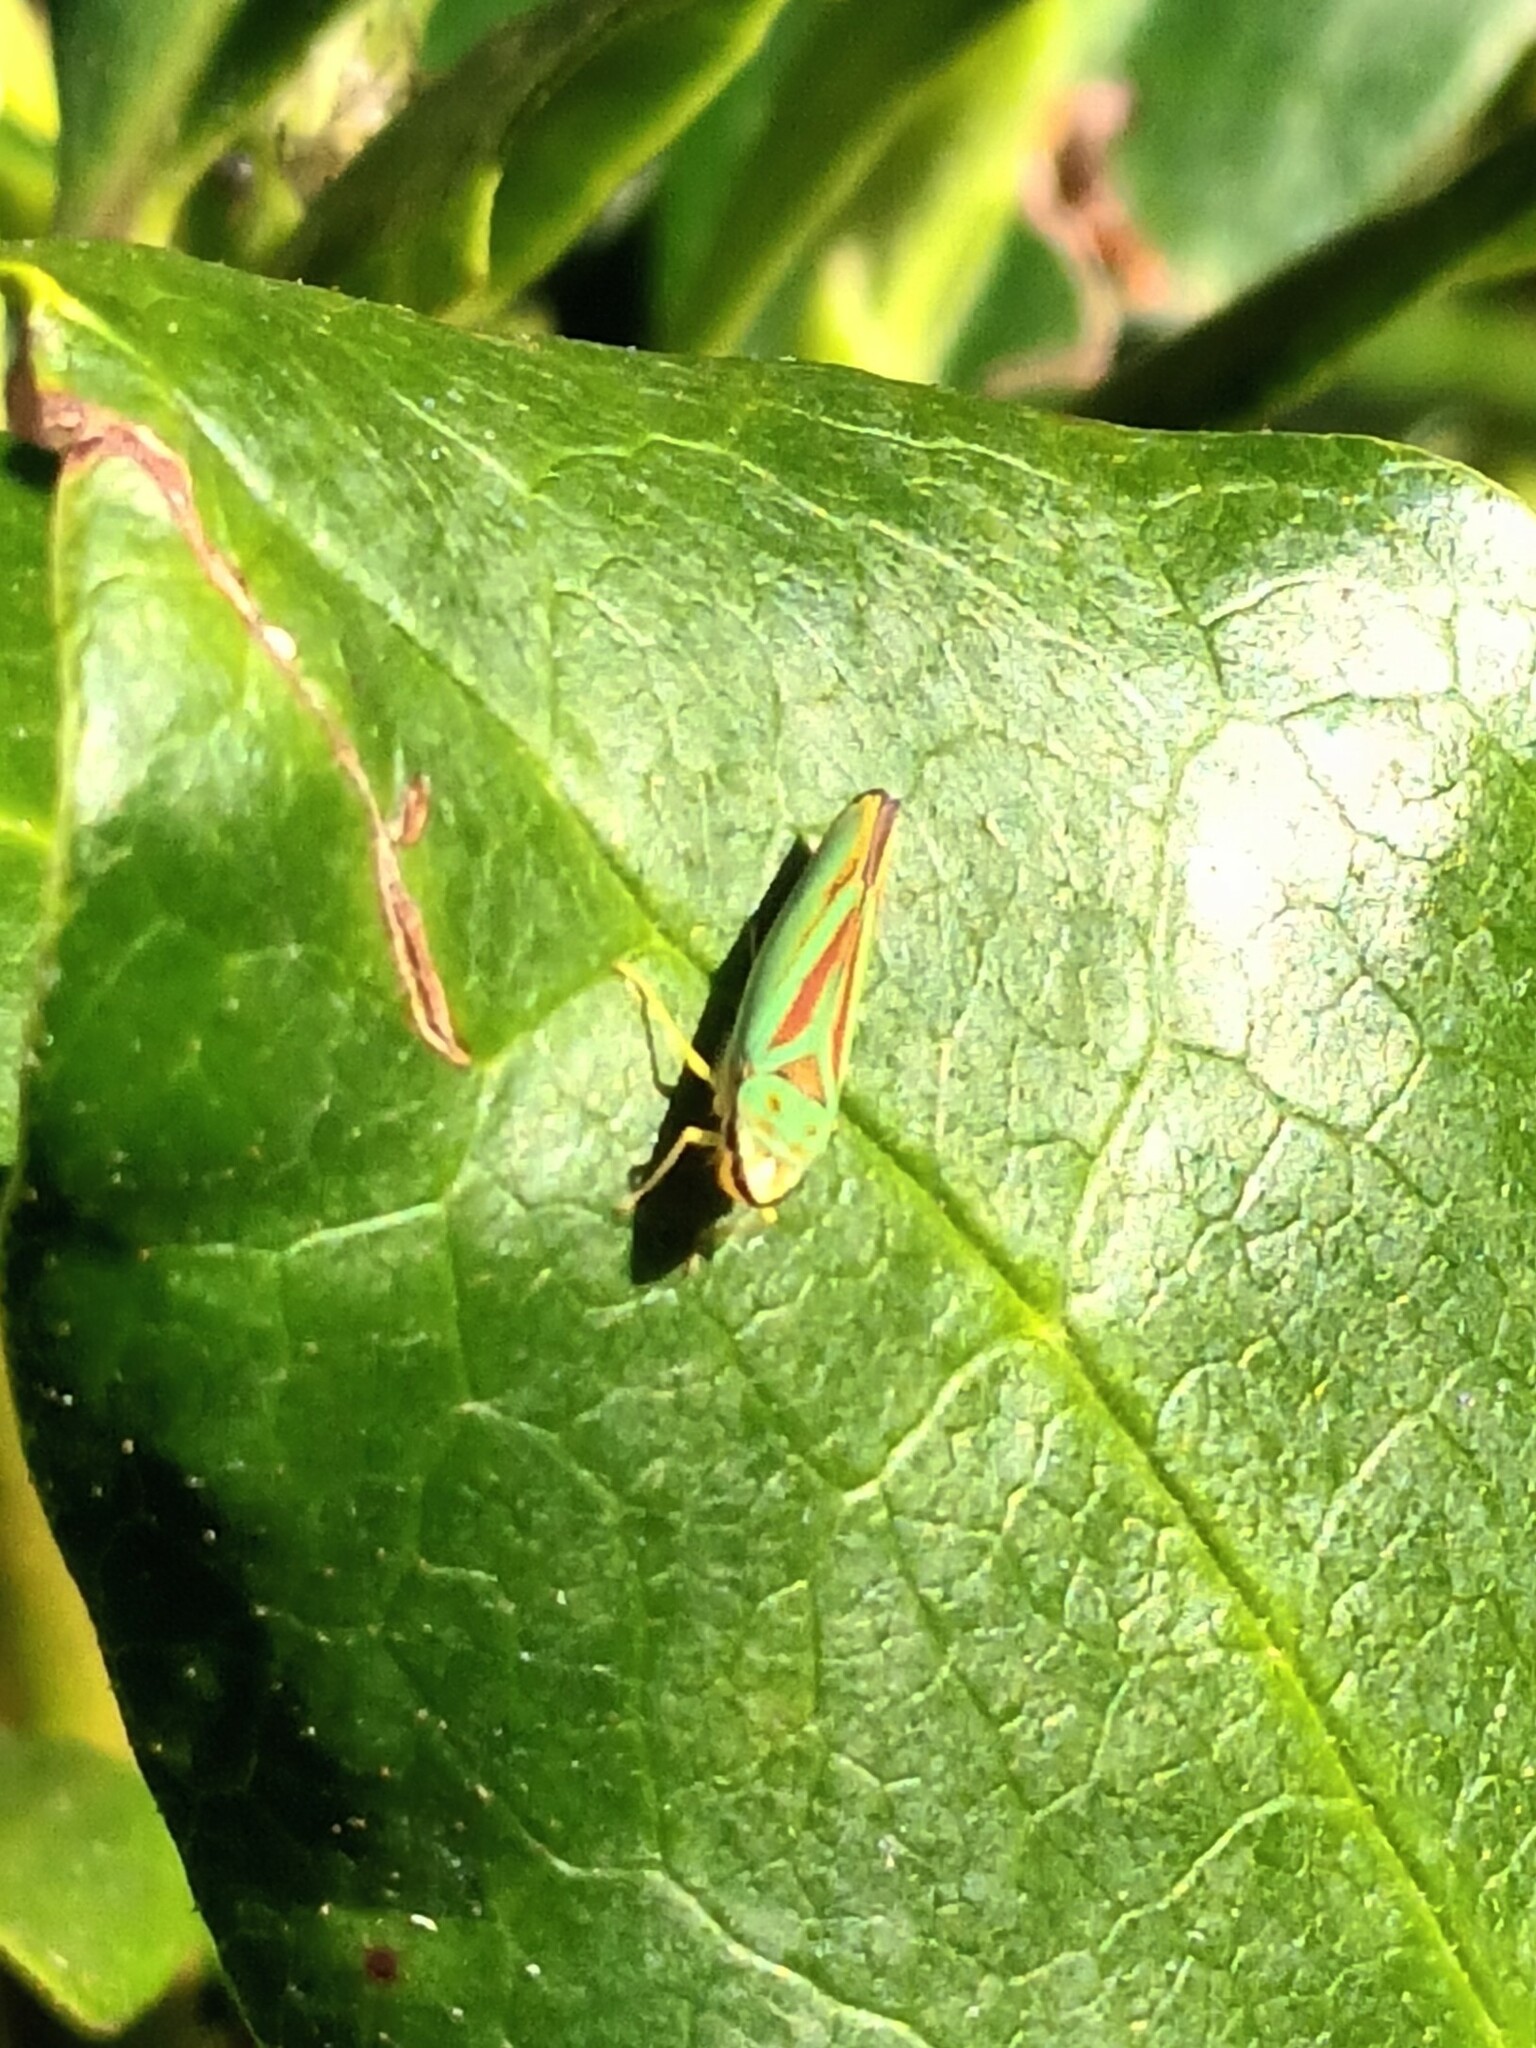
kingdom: Animalia
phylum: Arthropoda
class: Insecta
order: Hemiptera
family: Cicadellidae
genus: Graphocephala
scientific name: Graphocephala fennahi
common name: Rhododendron leafhopper
